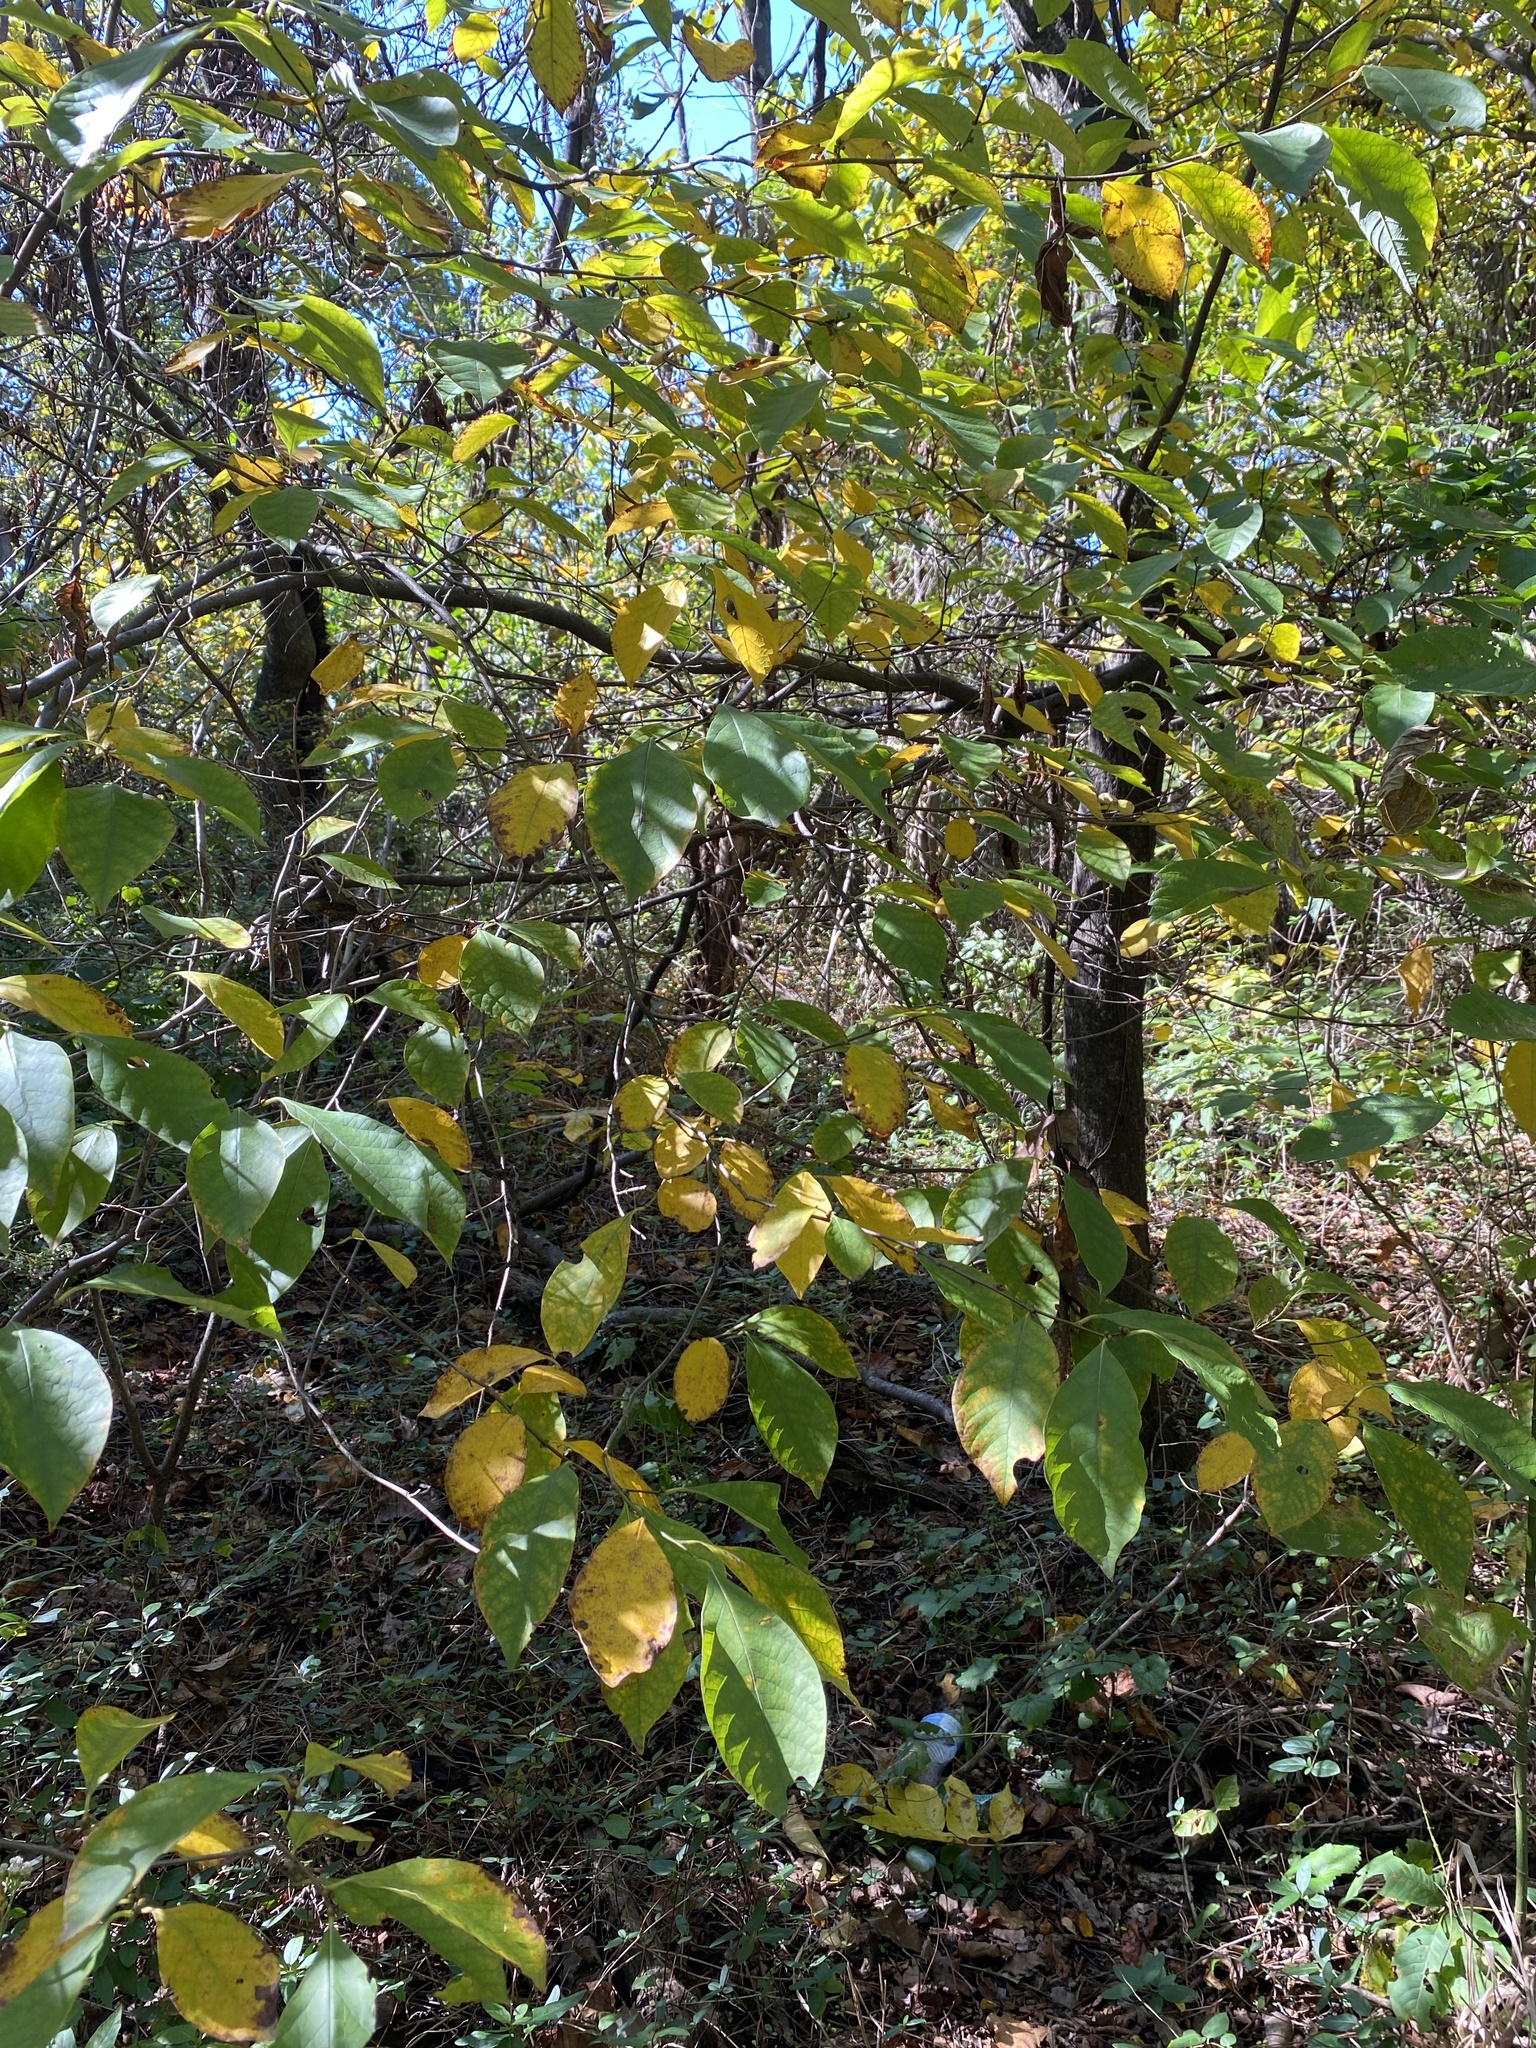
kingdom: Plantae
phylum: Tracheophyta
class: Magnoliopsida
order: Laurales
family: Lauraceae
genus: Lindera
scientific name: Lindera benzoin
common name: Spicebush
